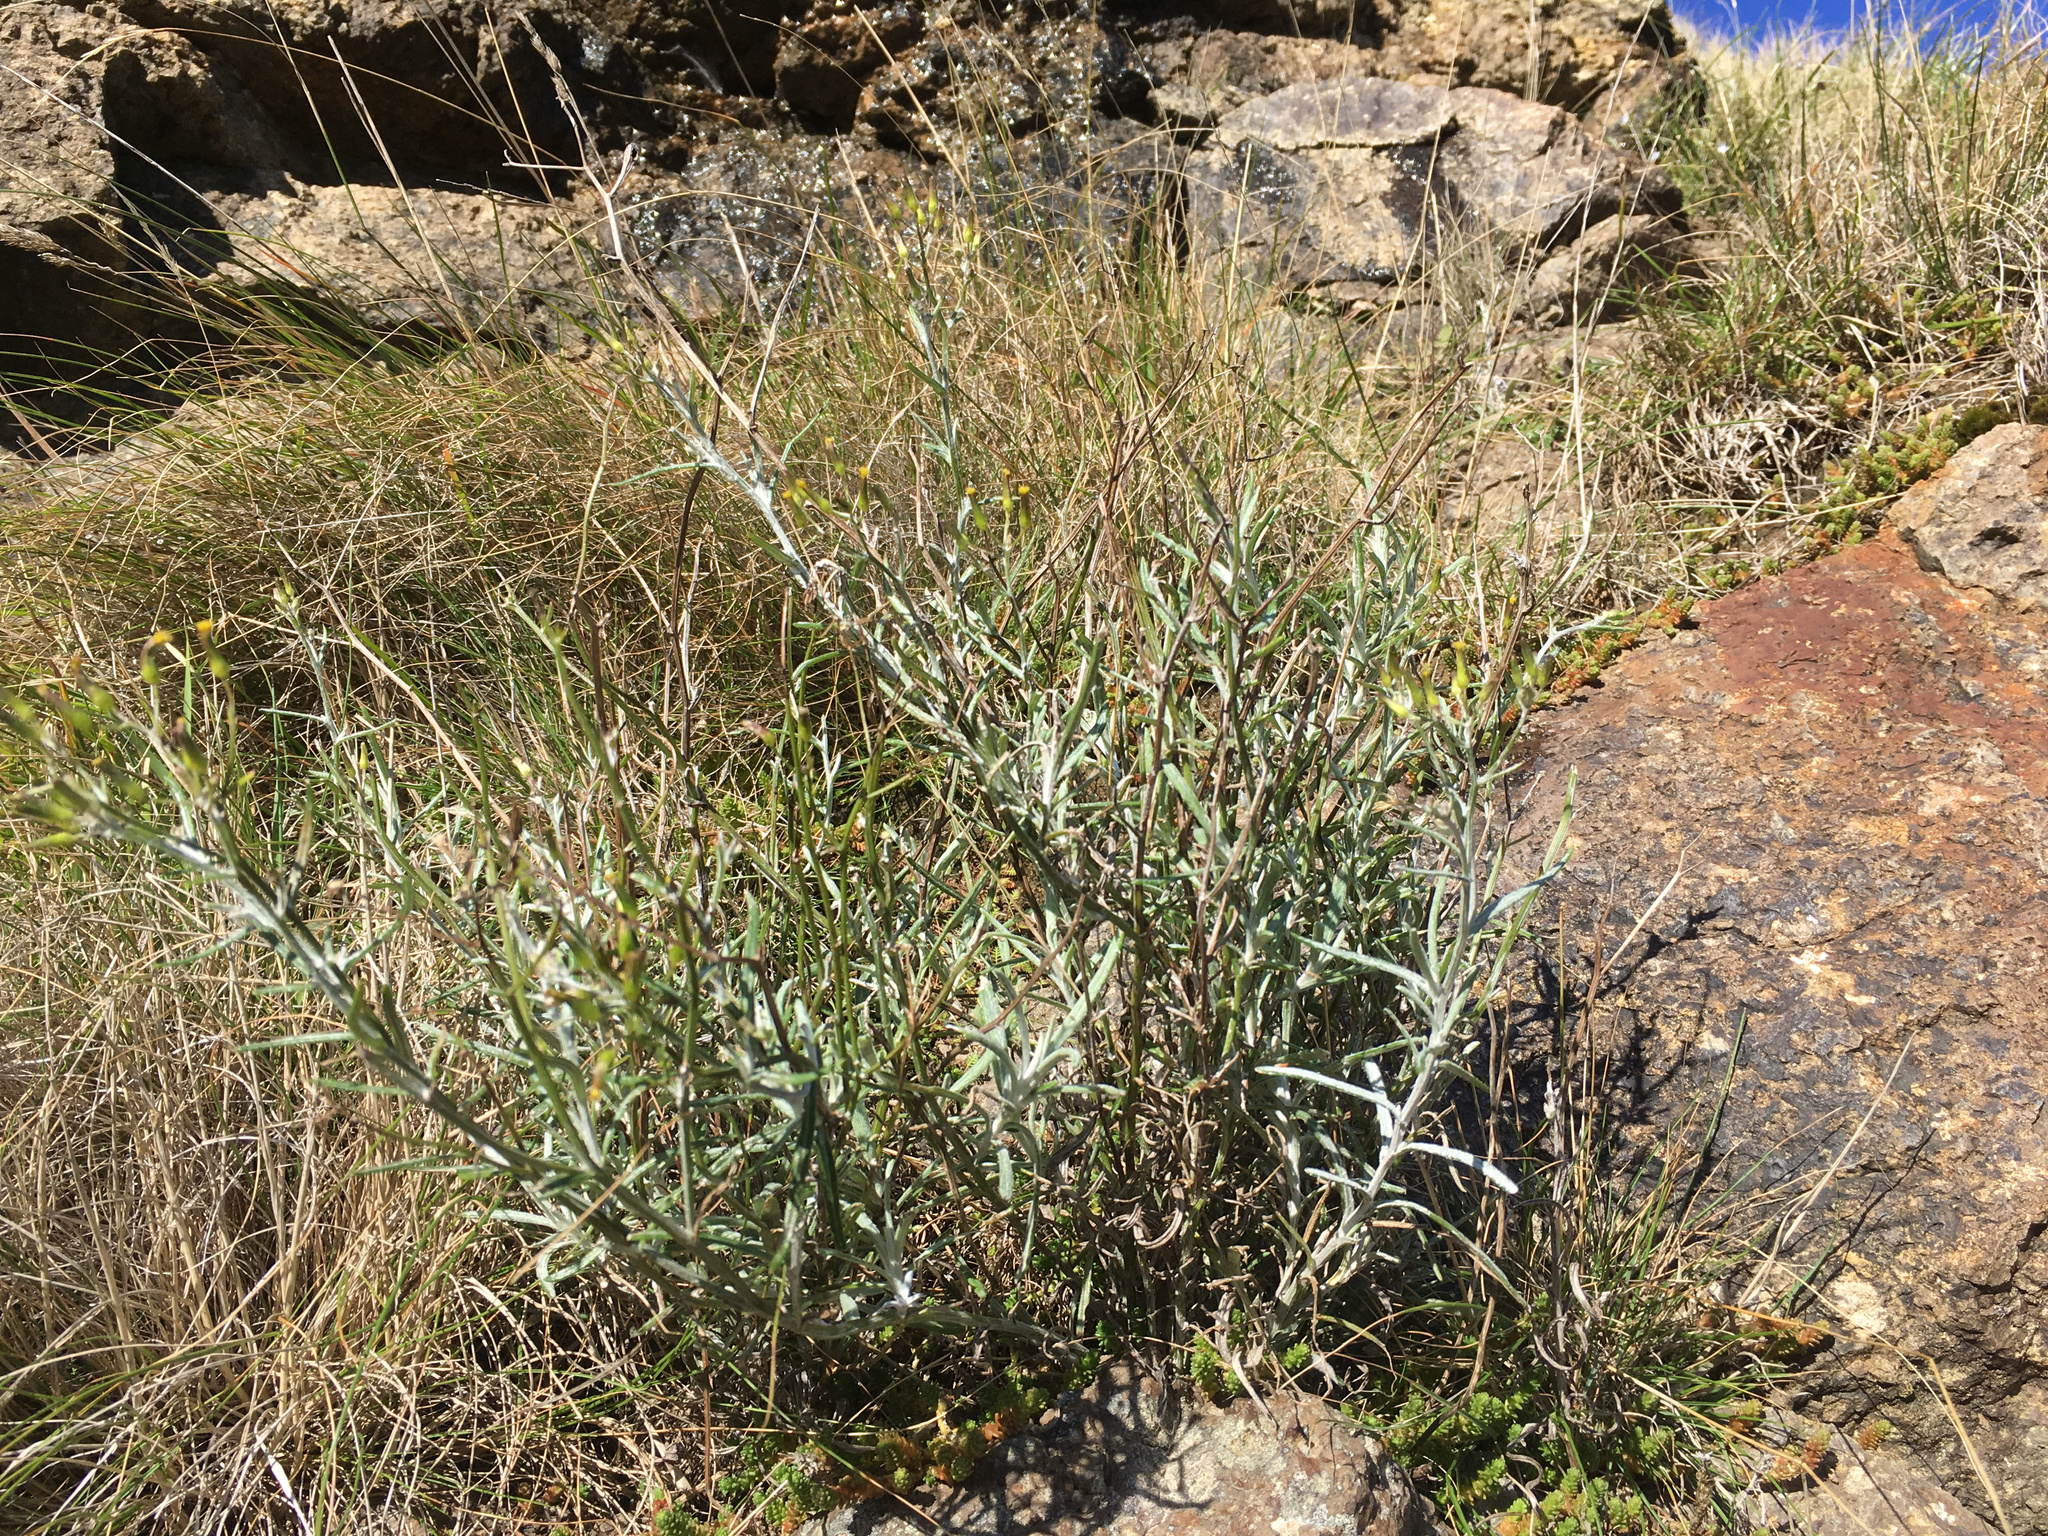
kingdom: Plantae
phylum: Tracheophyta
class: Magnoliopsida
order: Asterales
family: Asteraceae
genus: Senecio
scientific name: Senecio quadridentatus
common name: Cotton fireweed
